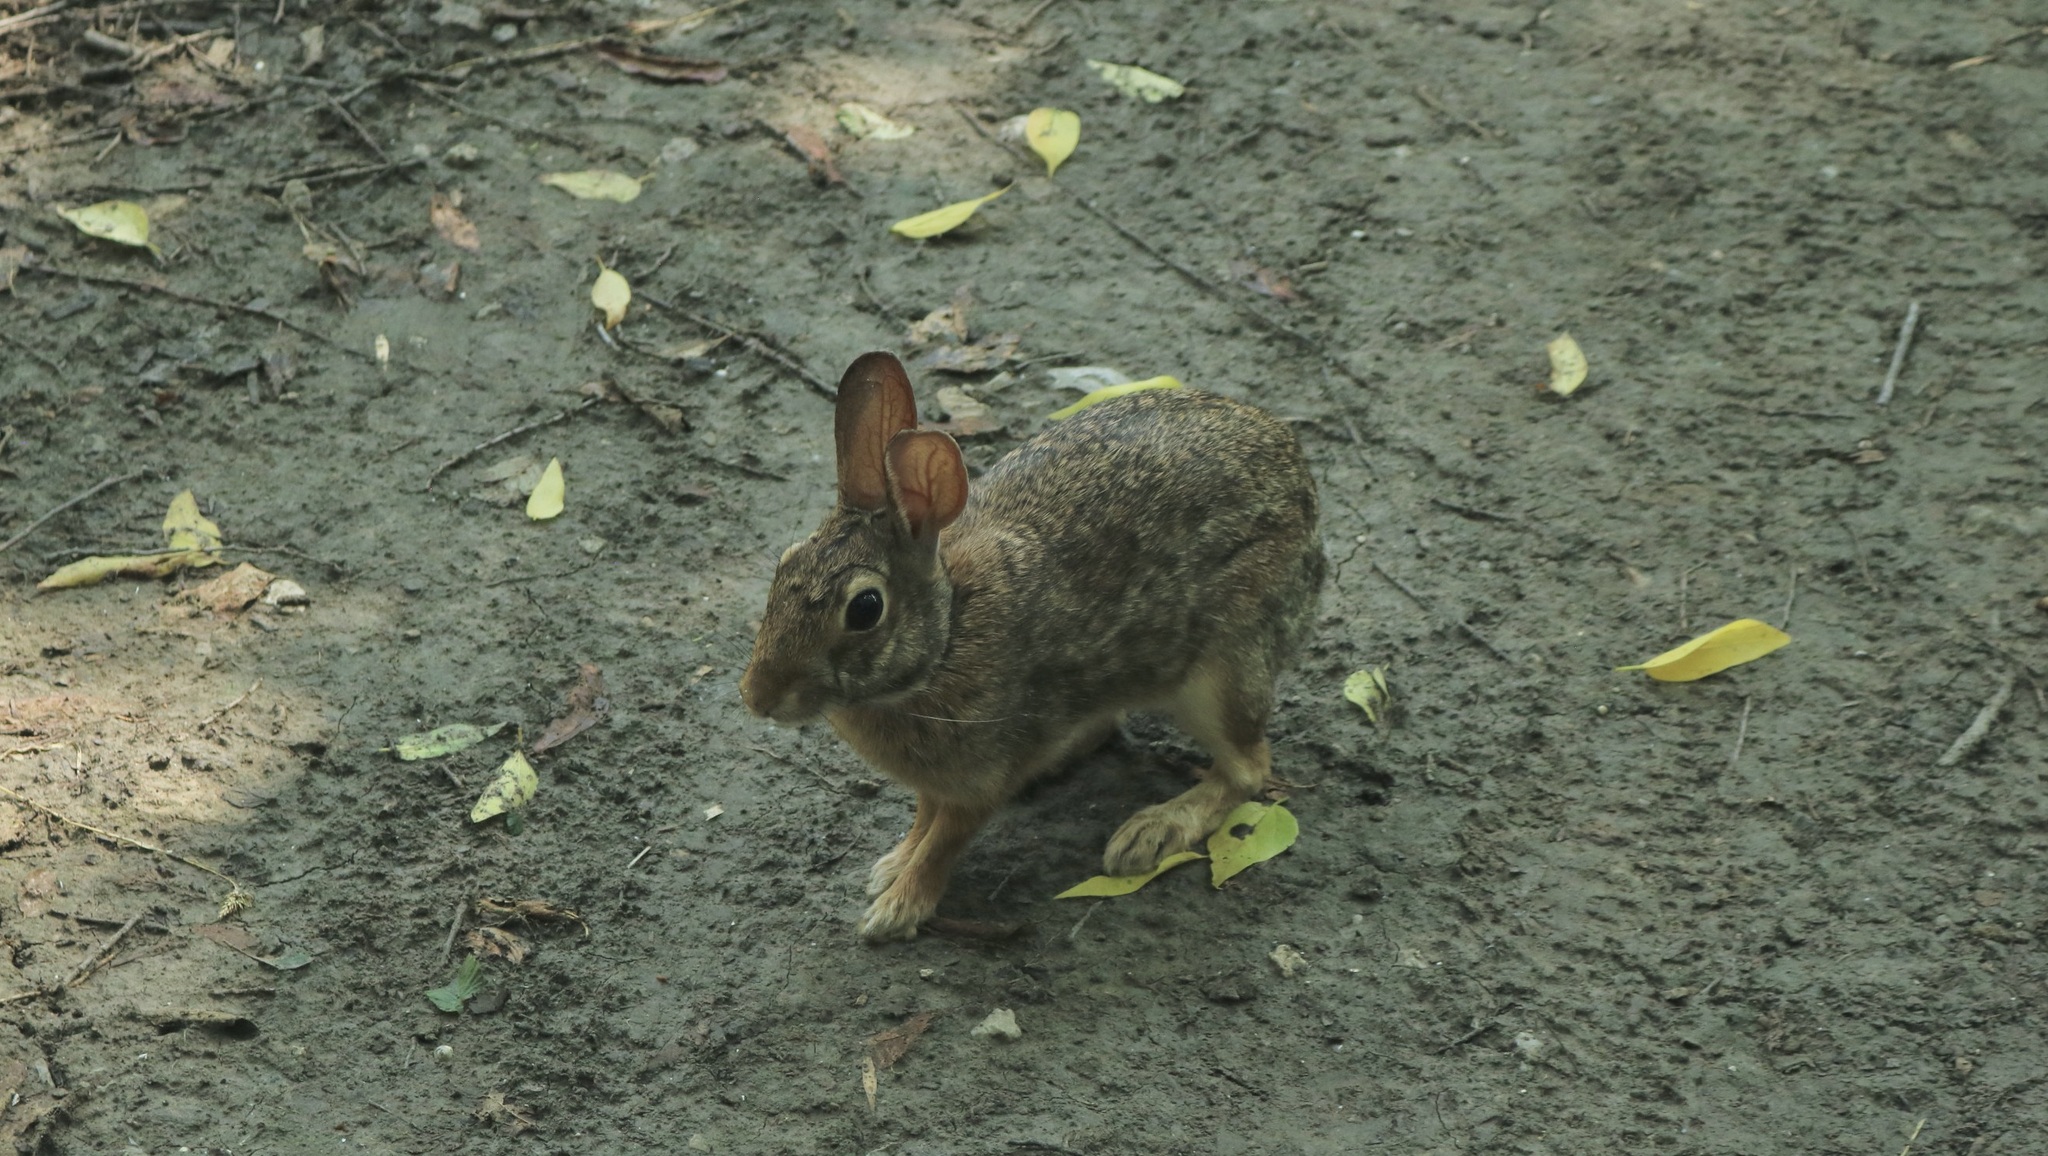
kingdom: Animalia
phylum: Chordata
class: Mammalia
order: Lagomorpha
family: Leporidae
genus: Sylvilagus
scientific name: Sylvilagus floridanus
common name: Eastern cottontail
